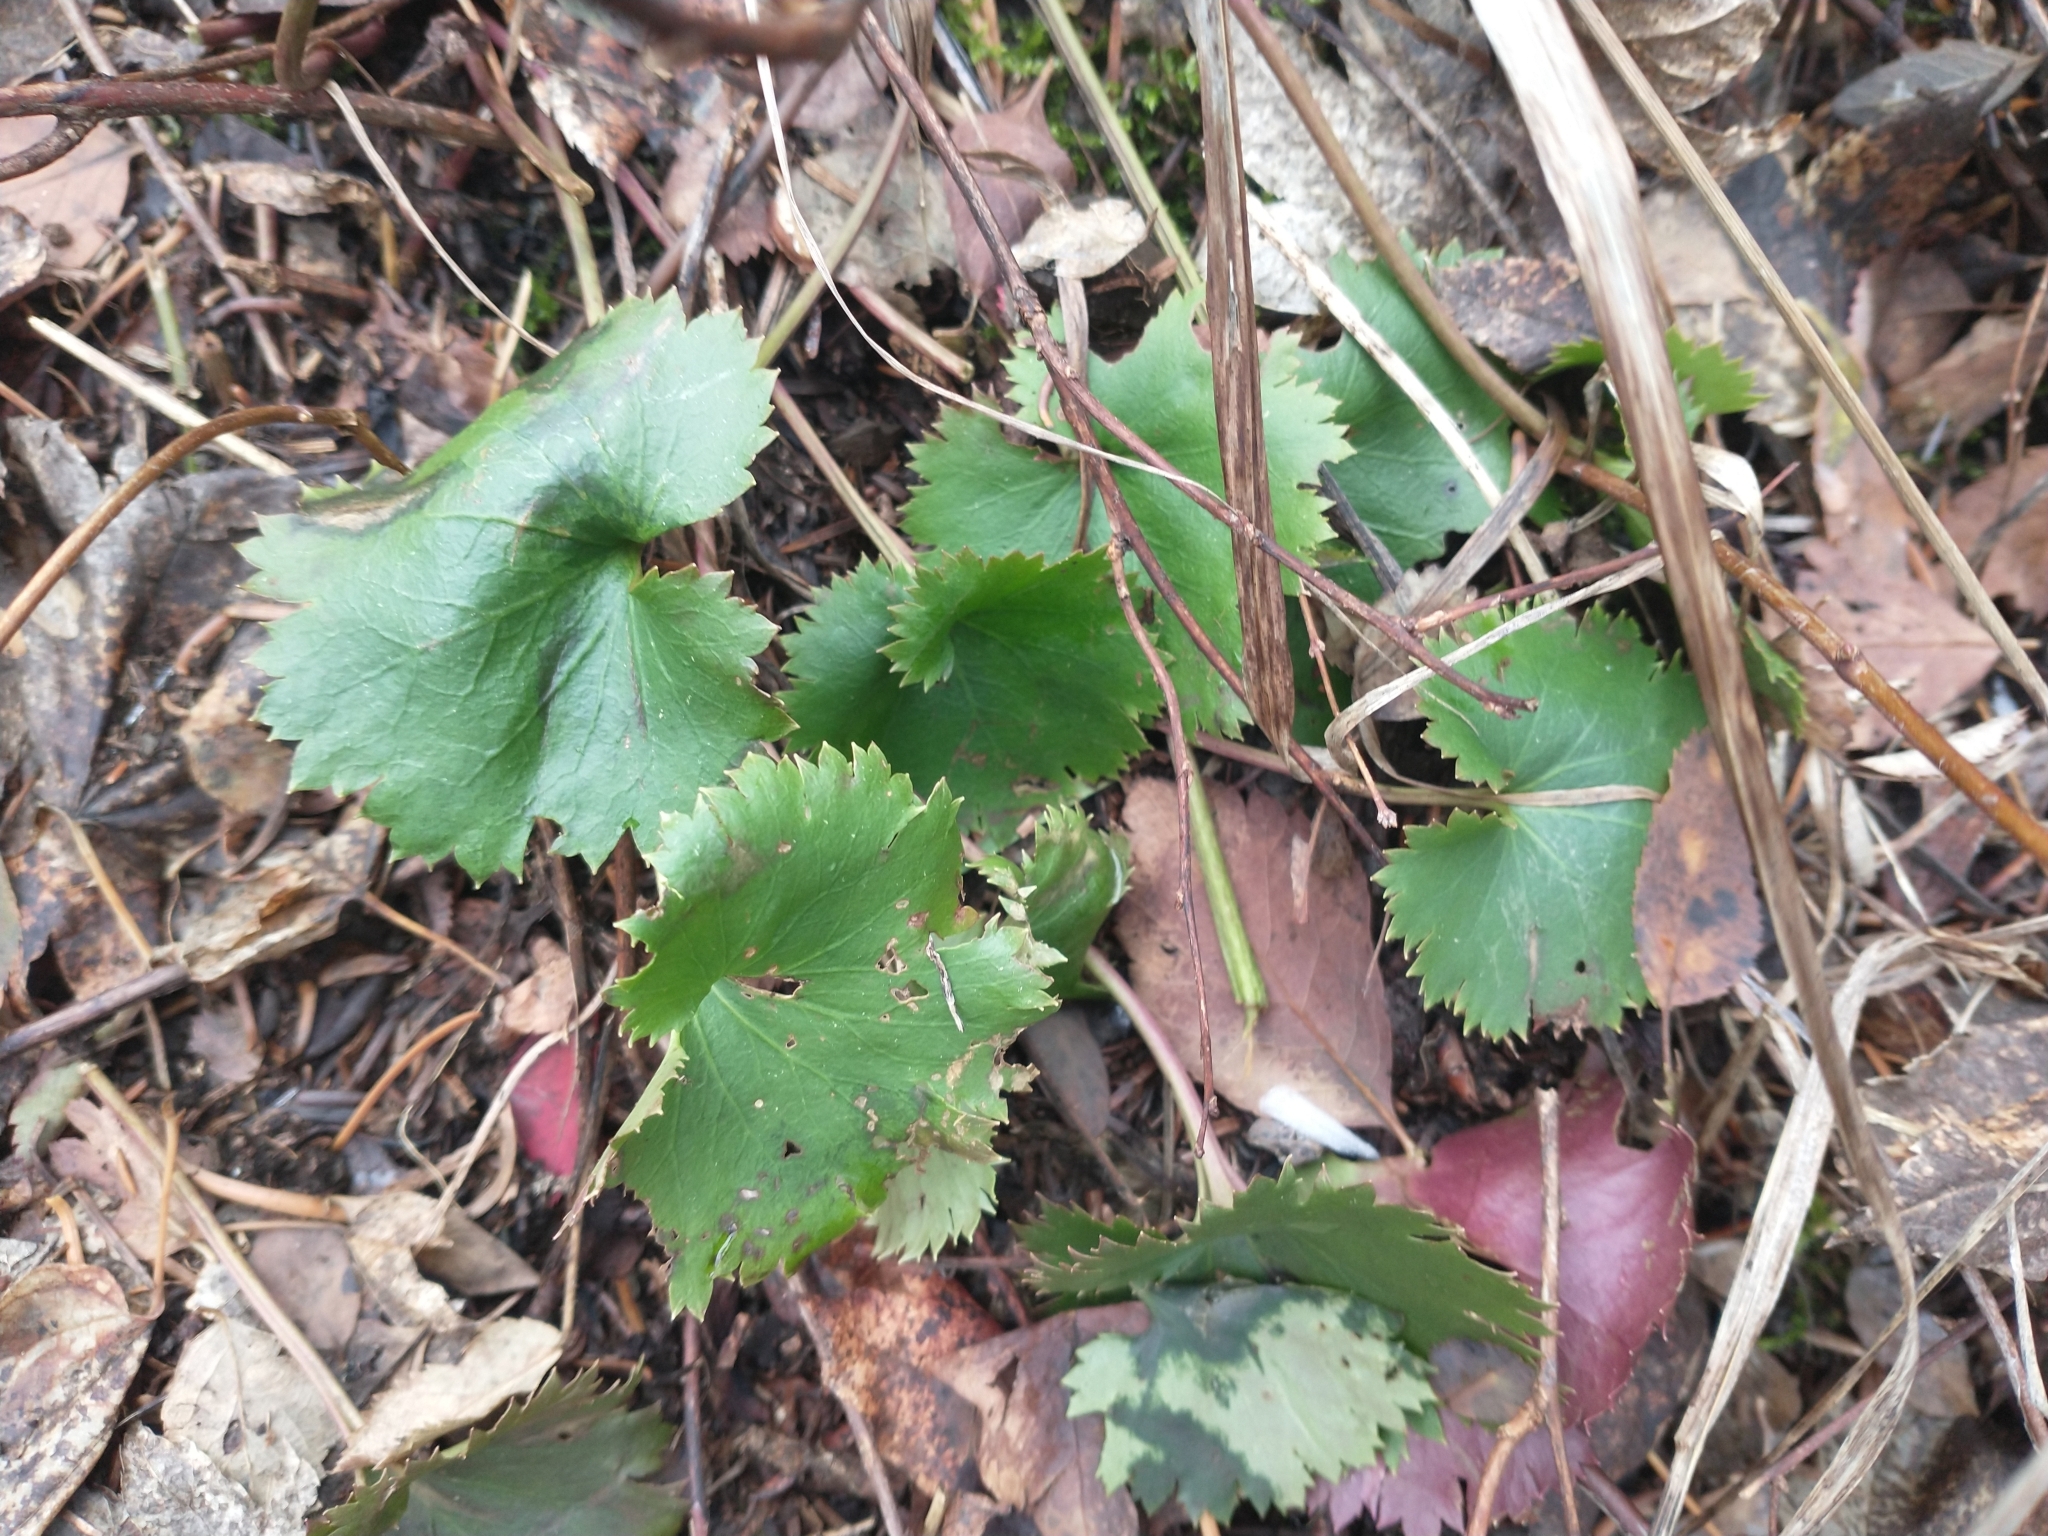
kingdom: Plantae
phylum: Tracheophyta
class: Magnoliopsida
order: Lamiales
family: Plantaginaceae
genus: Synthyris
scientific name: Synthyris missurica
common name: Kitten-tails
